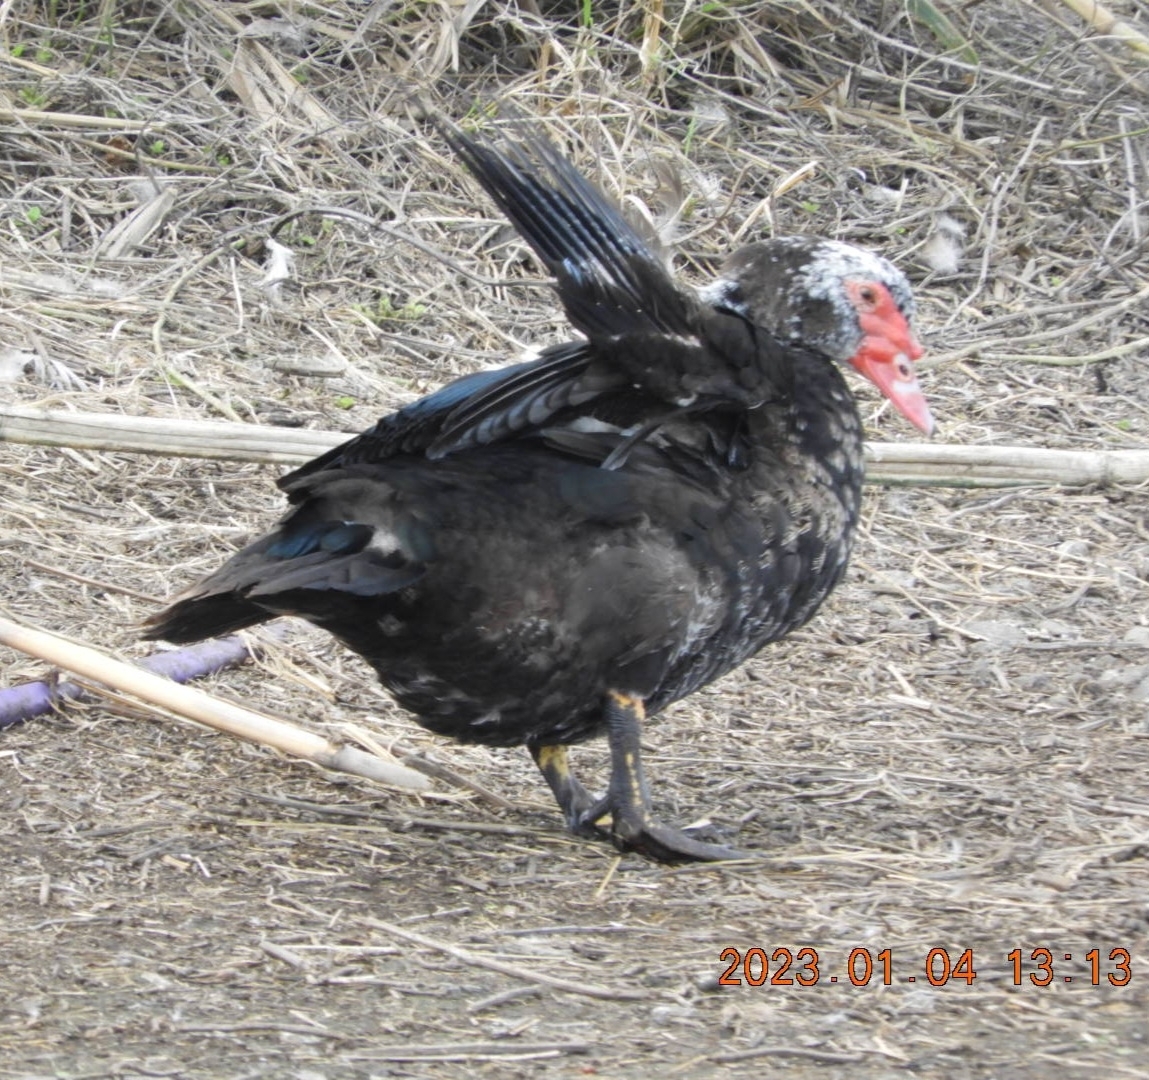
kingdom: Animalia
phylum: Chordata
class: Aves
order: Anseriformes
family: Anatidae
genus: Cairina
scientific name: Cairina moschata
